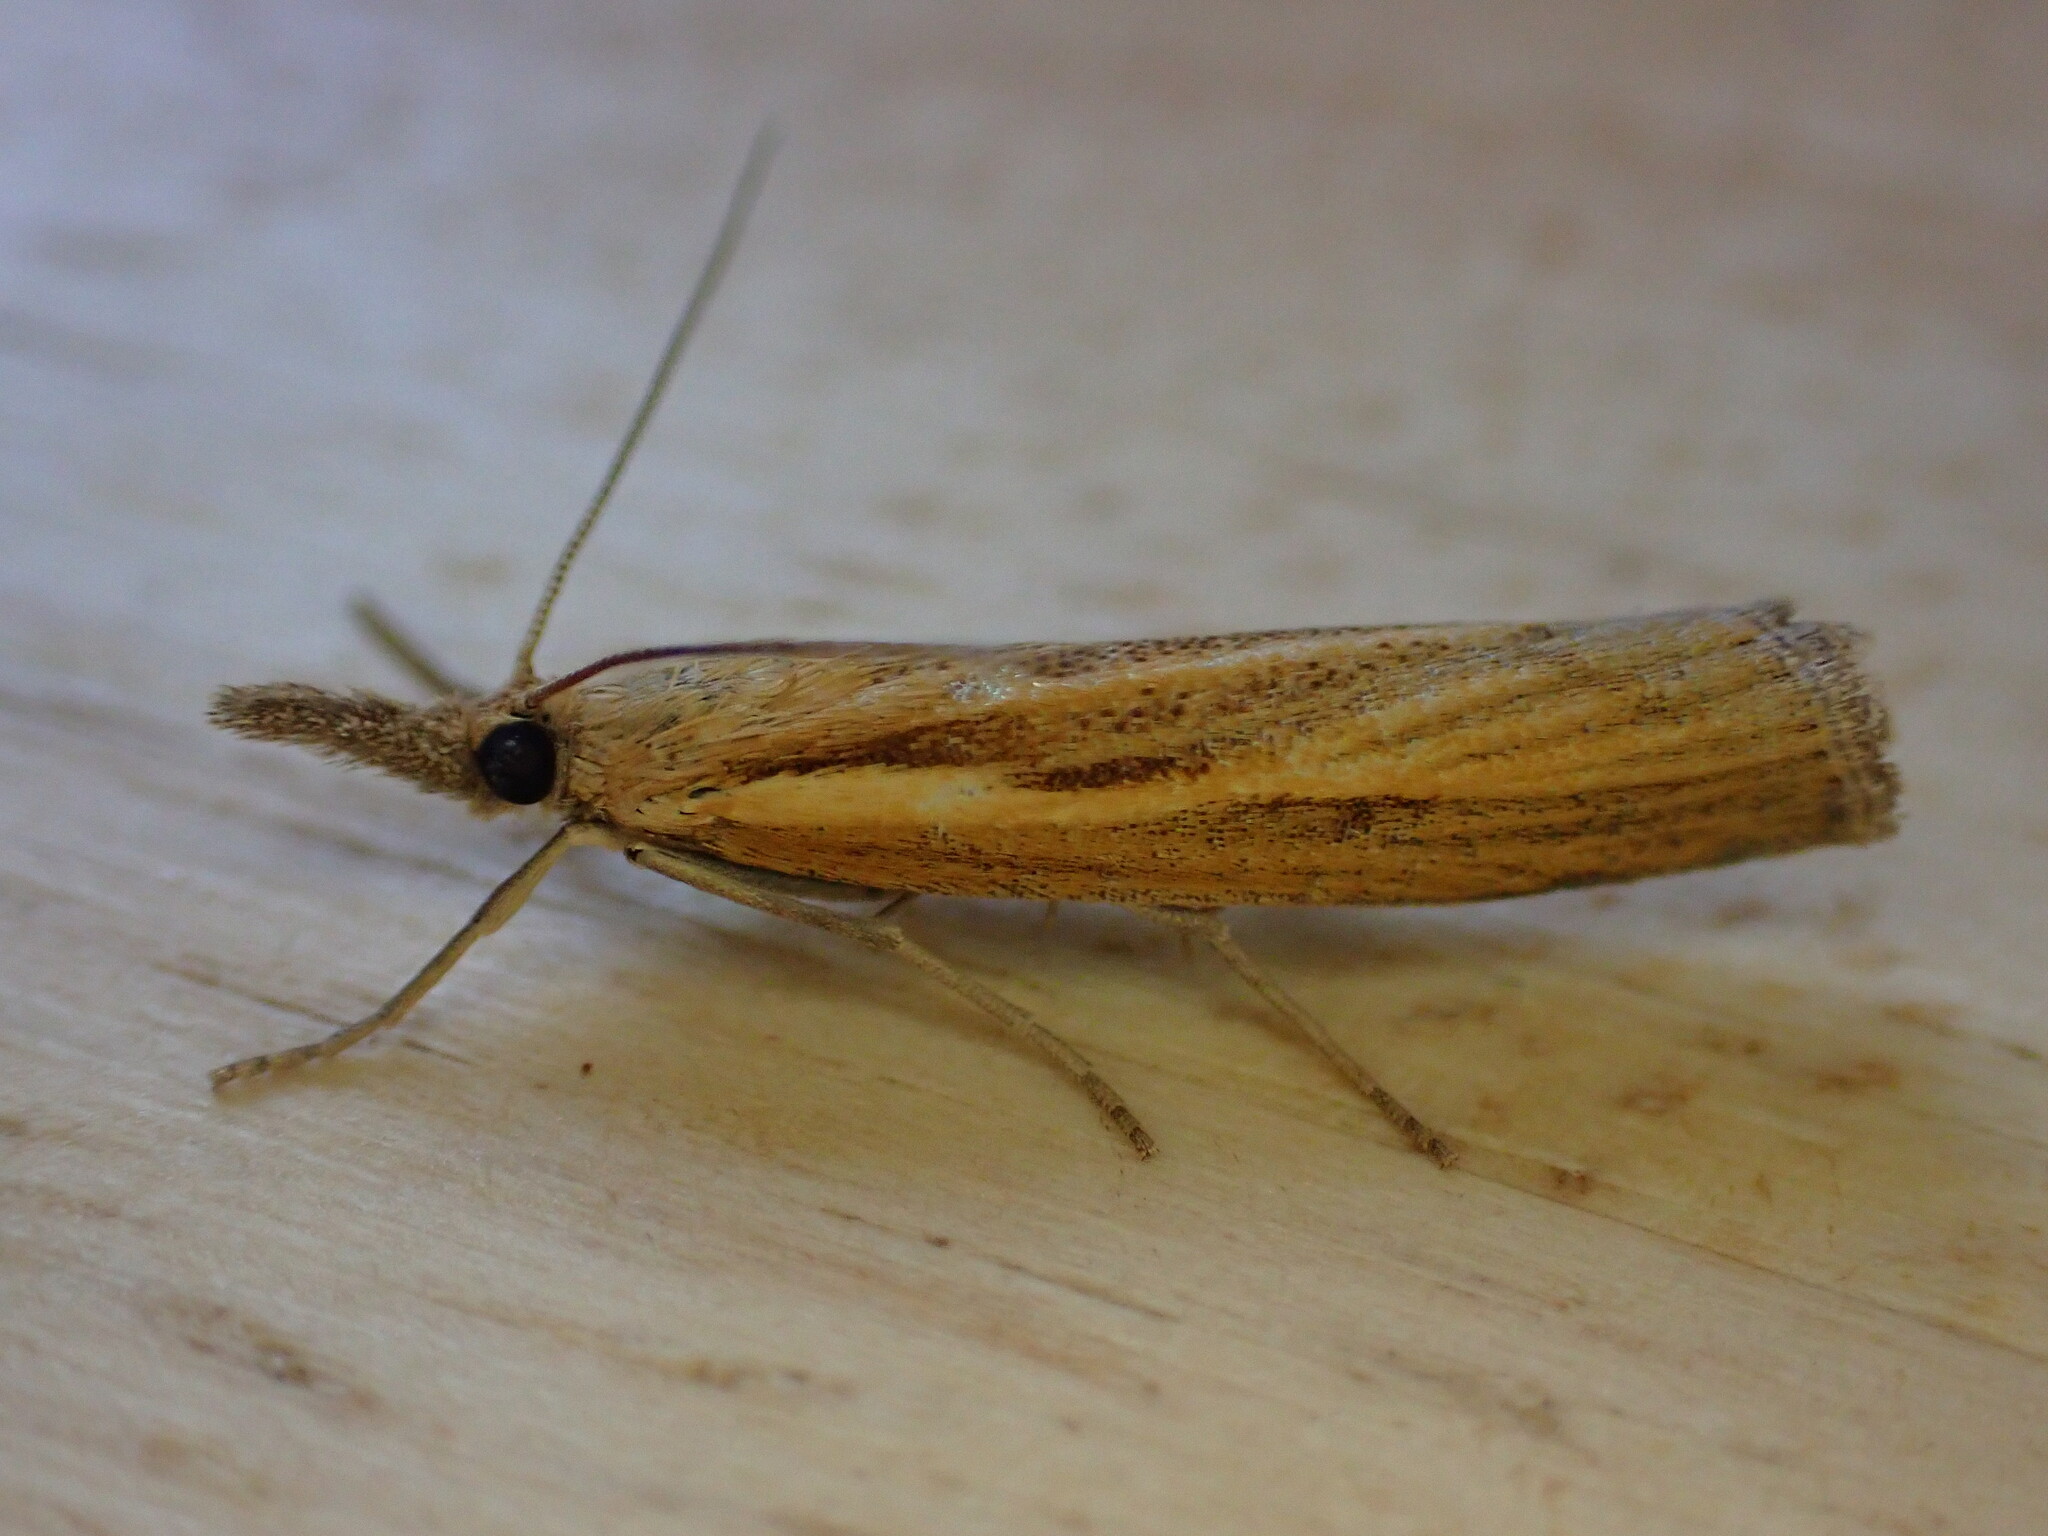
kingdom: Animalia
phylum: Arthropoda
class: Insecta
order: Lepidoptera
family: Crambidae
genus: Agriphila
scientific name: Agriphila tristellus
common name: Common grass-veneer
